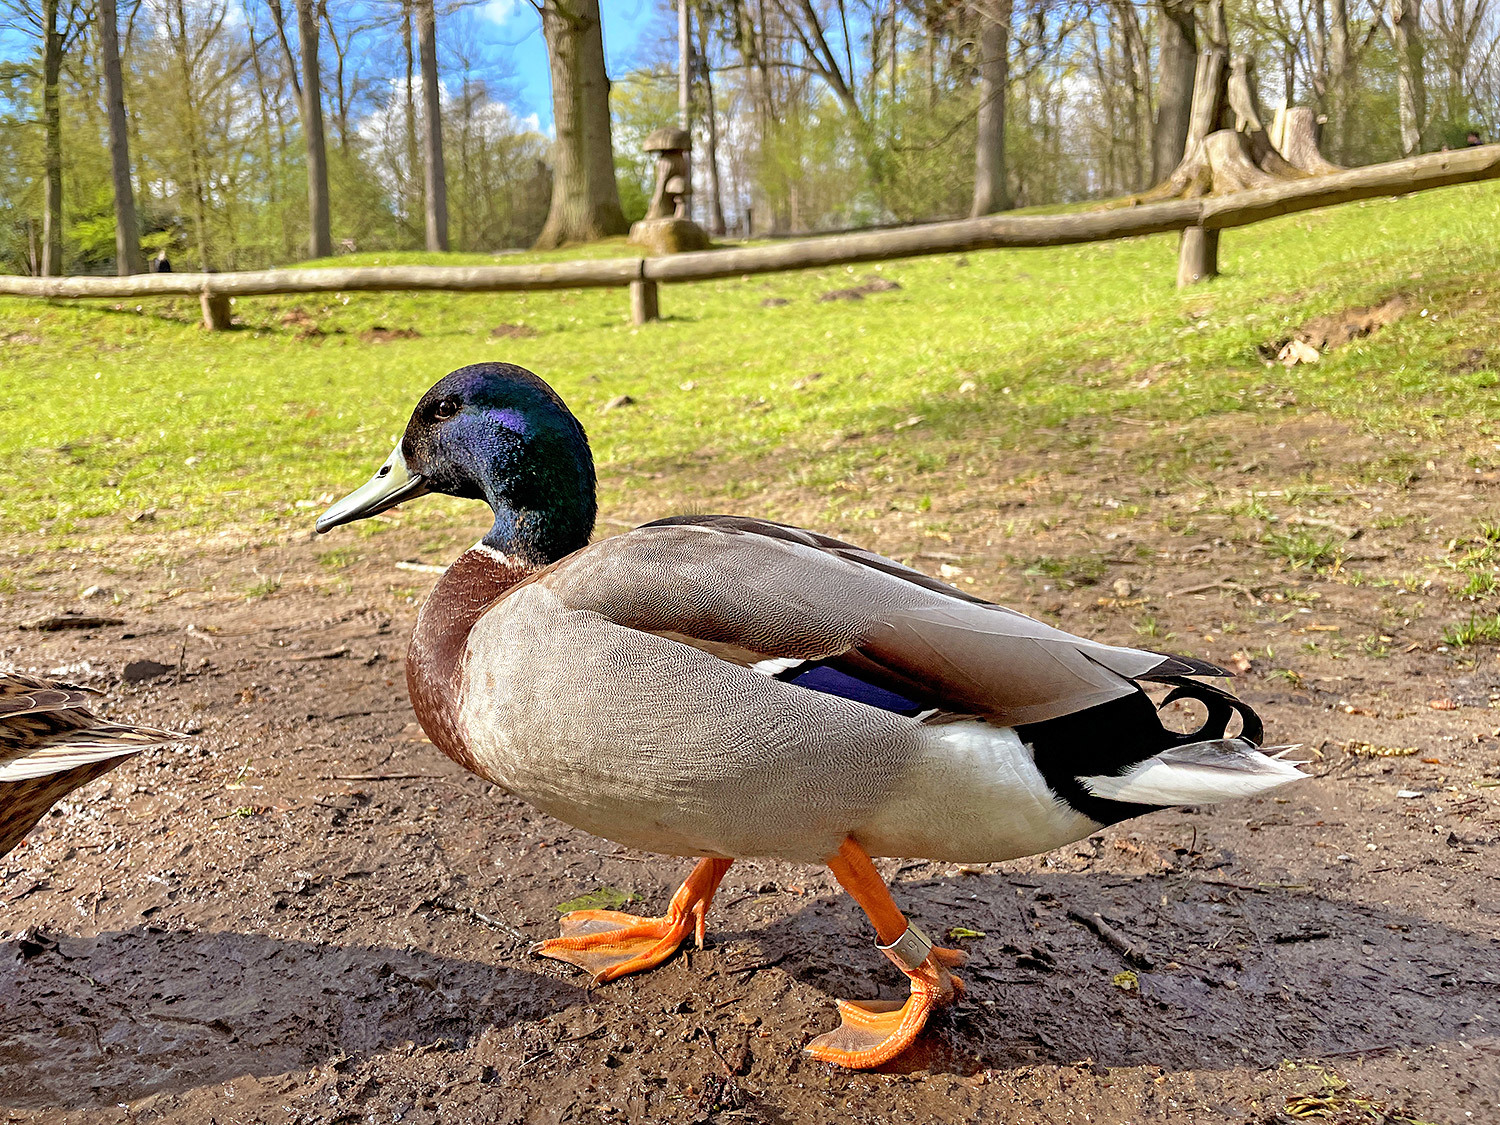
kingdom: Animalia
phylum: Chordata
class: Aves
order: Anseriformes
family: Anatidae
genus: Anas
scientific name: Anas platyrhynchos
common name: Mallard
